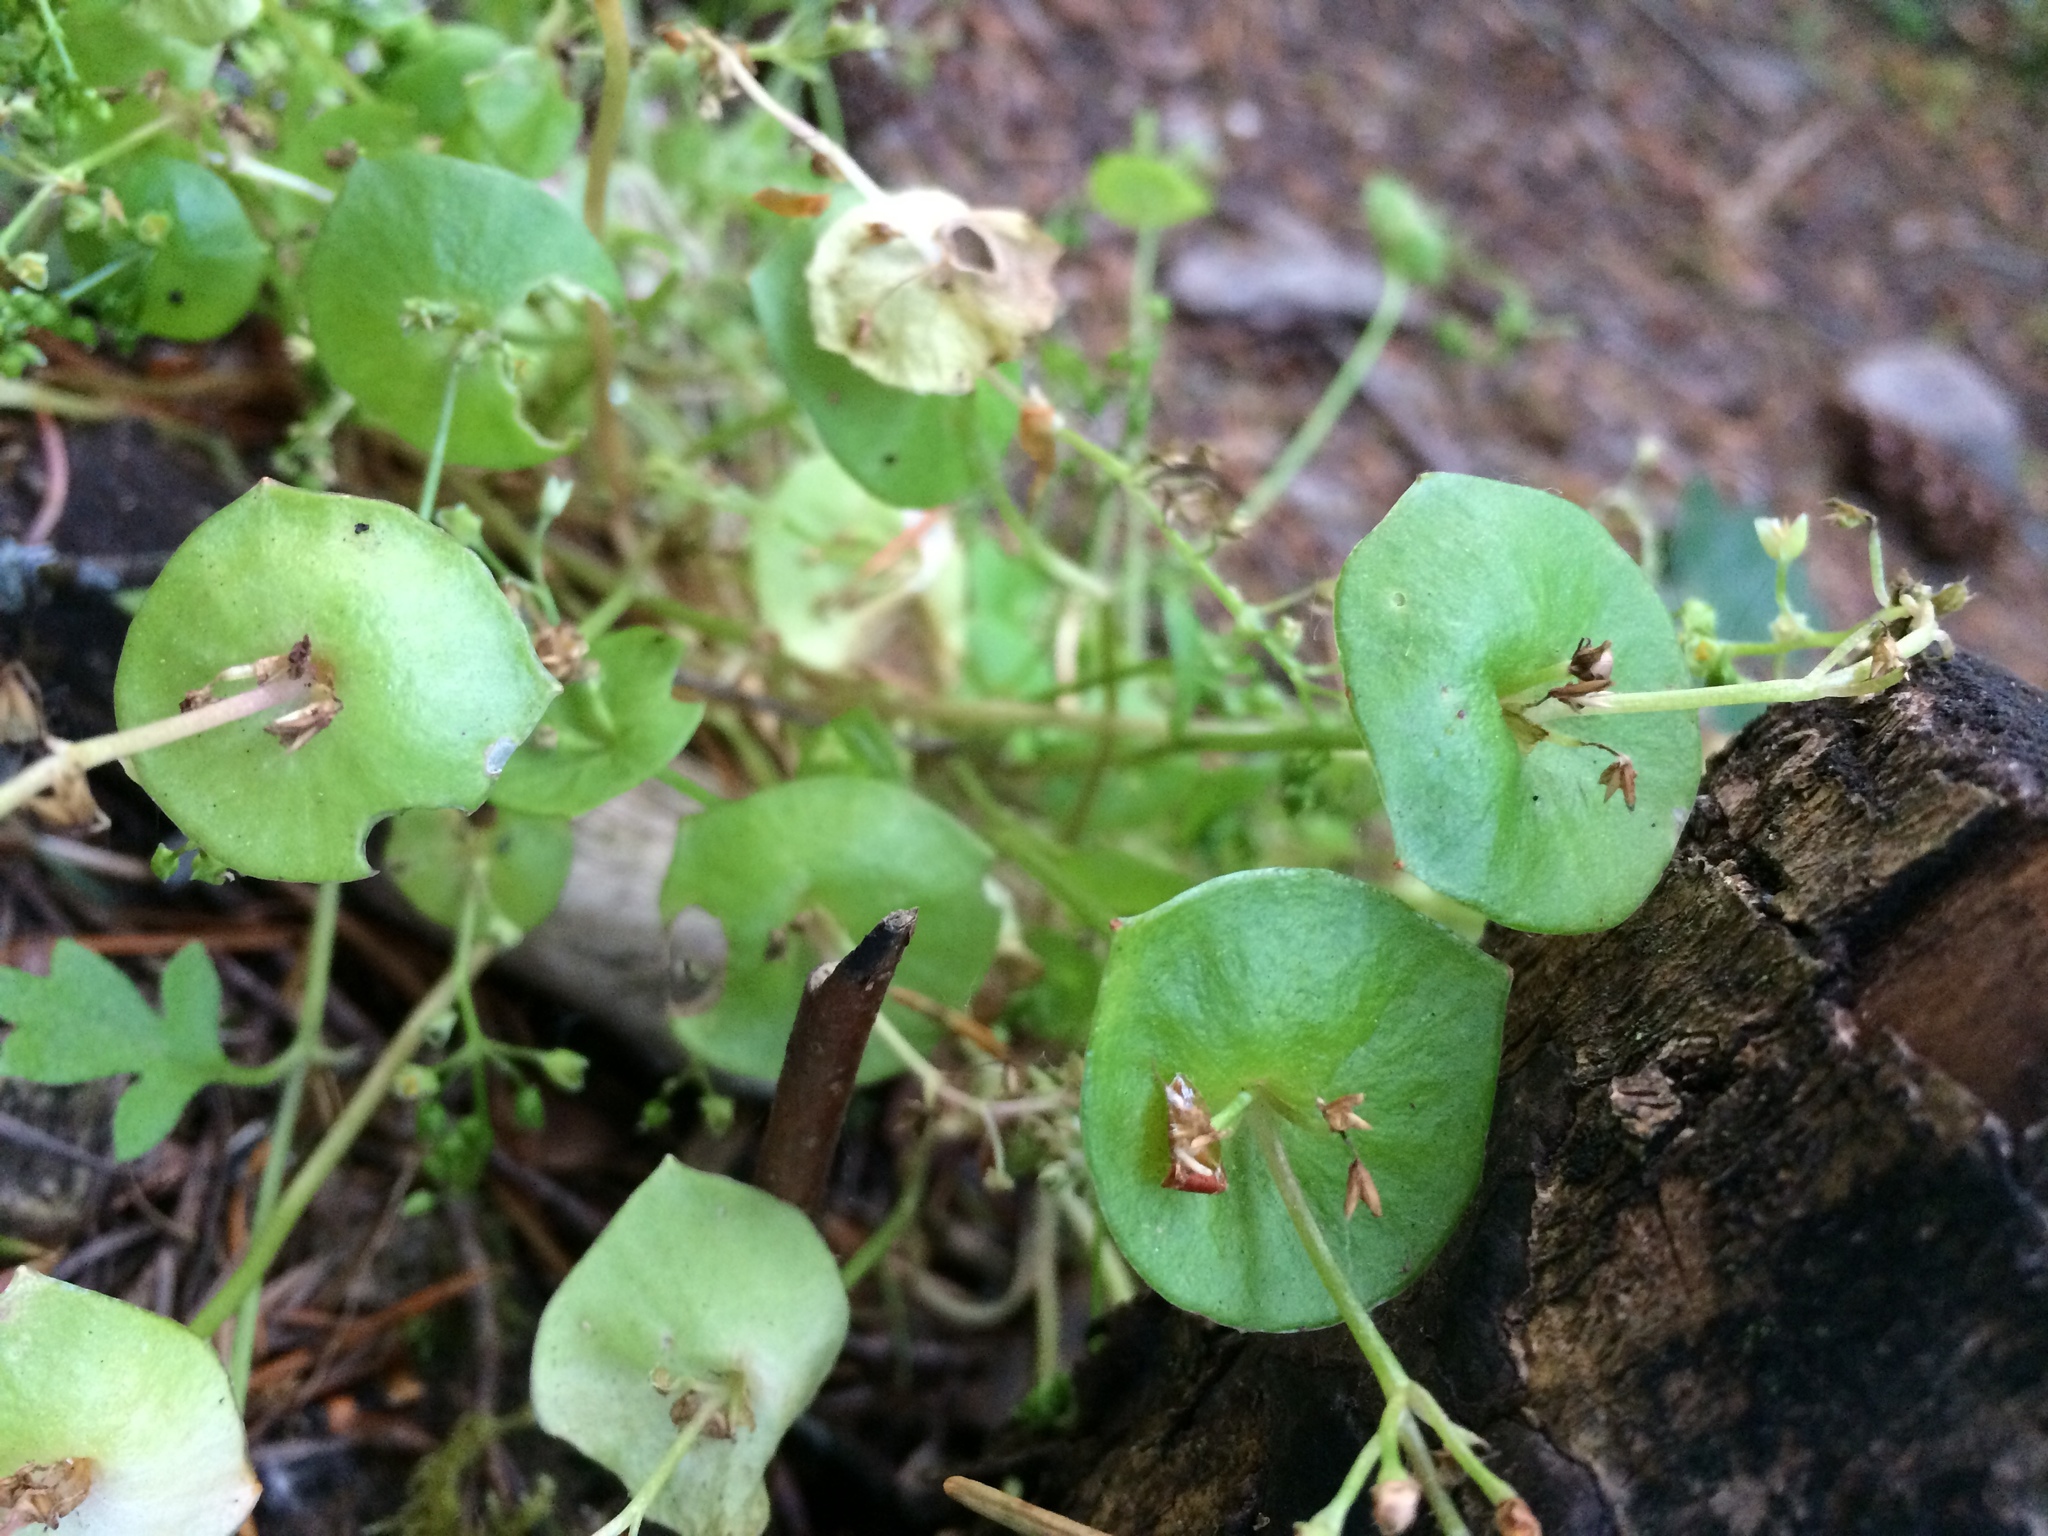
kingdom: Plantae
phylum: Tracheophyta
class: Magnoliopsida
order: Caryophyllales
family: Montiaceae
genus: Claytonia
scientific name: Claytonia perfoliata
